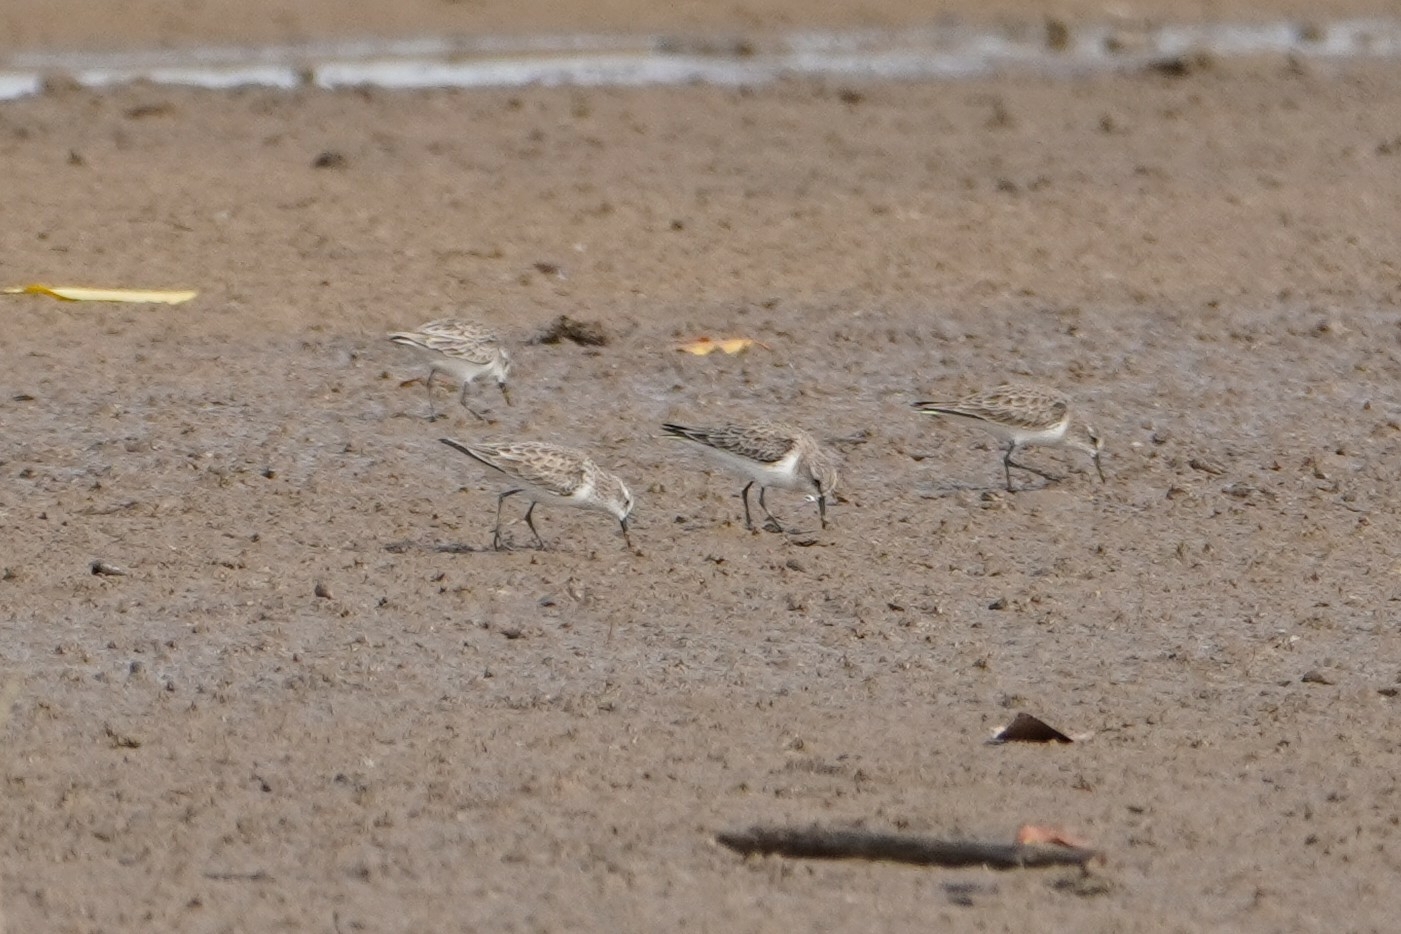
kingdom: Animalia
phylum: Chordata
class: Aves
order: Charadriiformes
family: Scolopacidae
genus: Calidris
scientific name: Calidris minuta
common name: Little stint
